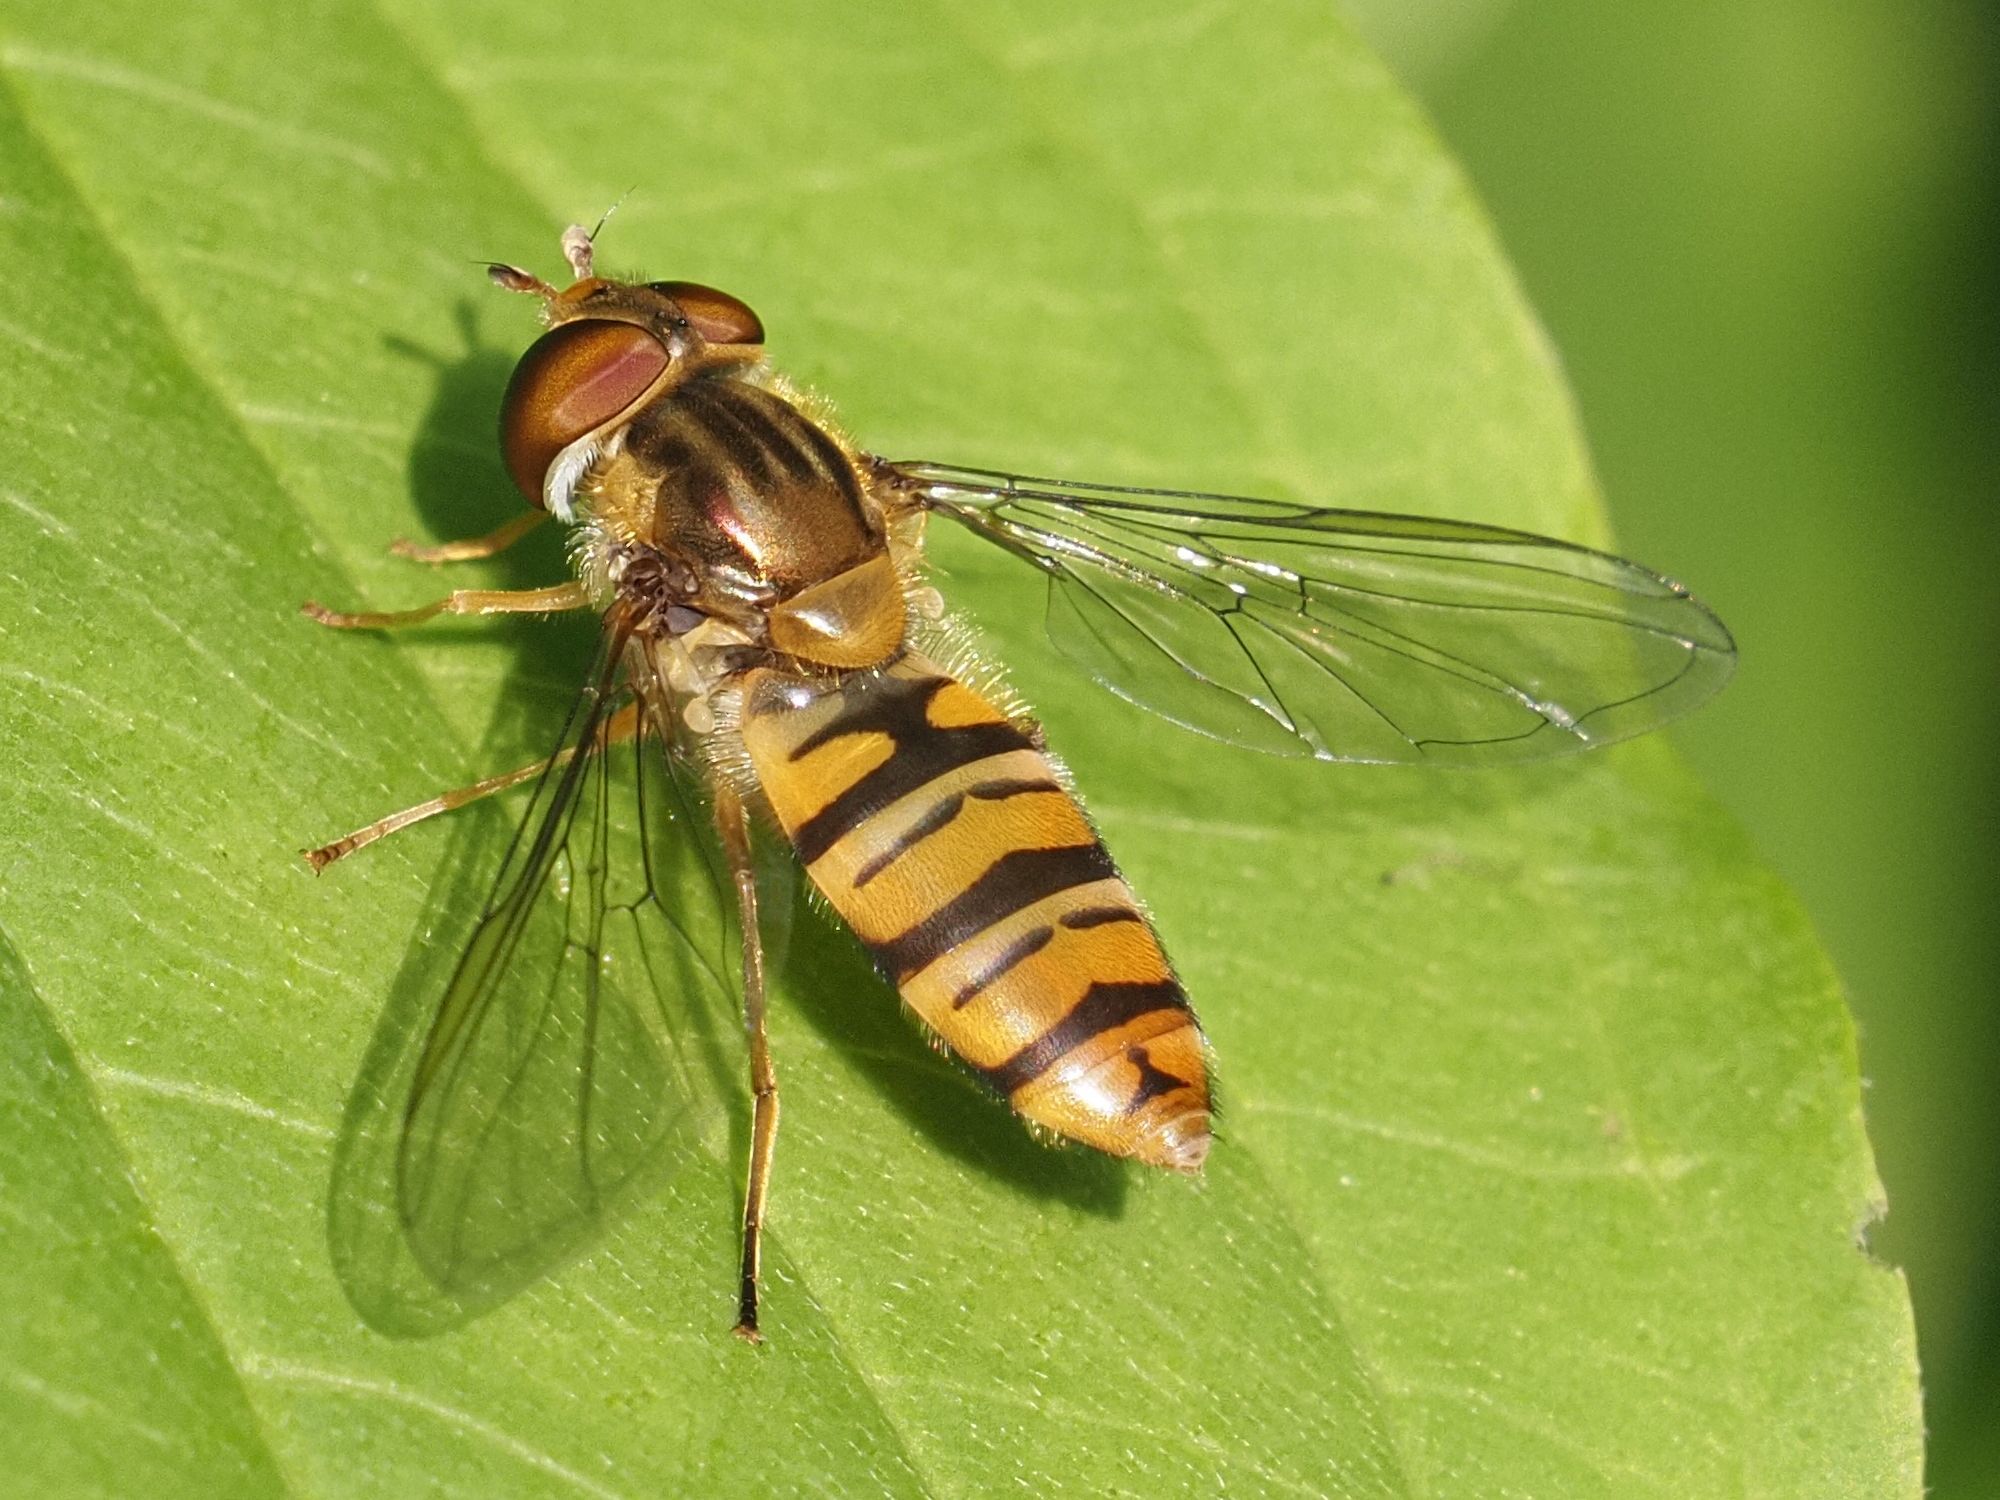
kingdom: Animalia
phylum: Arthropoda
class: Insecta
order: Diptera
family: Syrphidae
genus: Episyrphus
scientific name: Episyrphus balteatus
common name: Marmalade hoverfly
